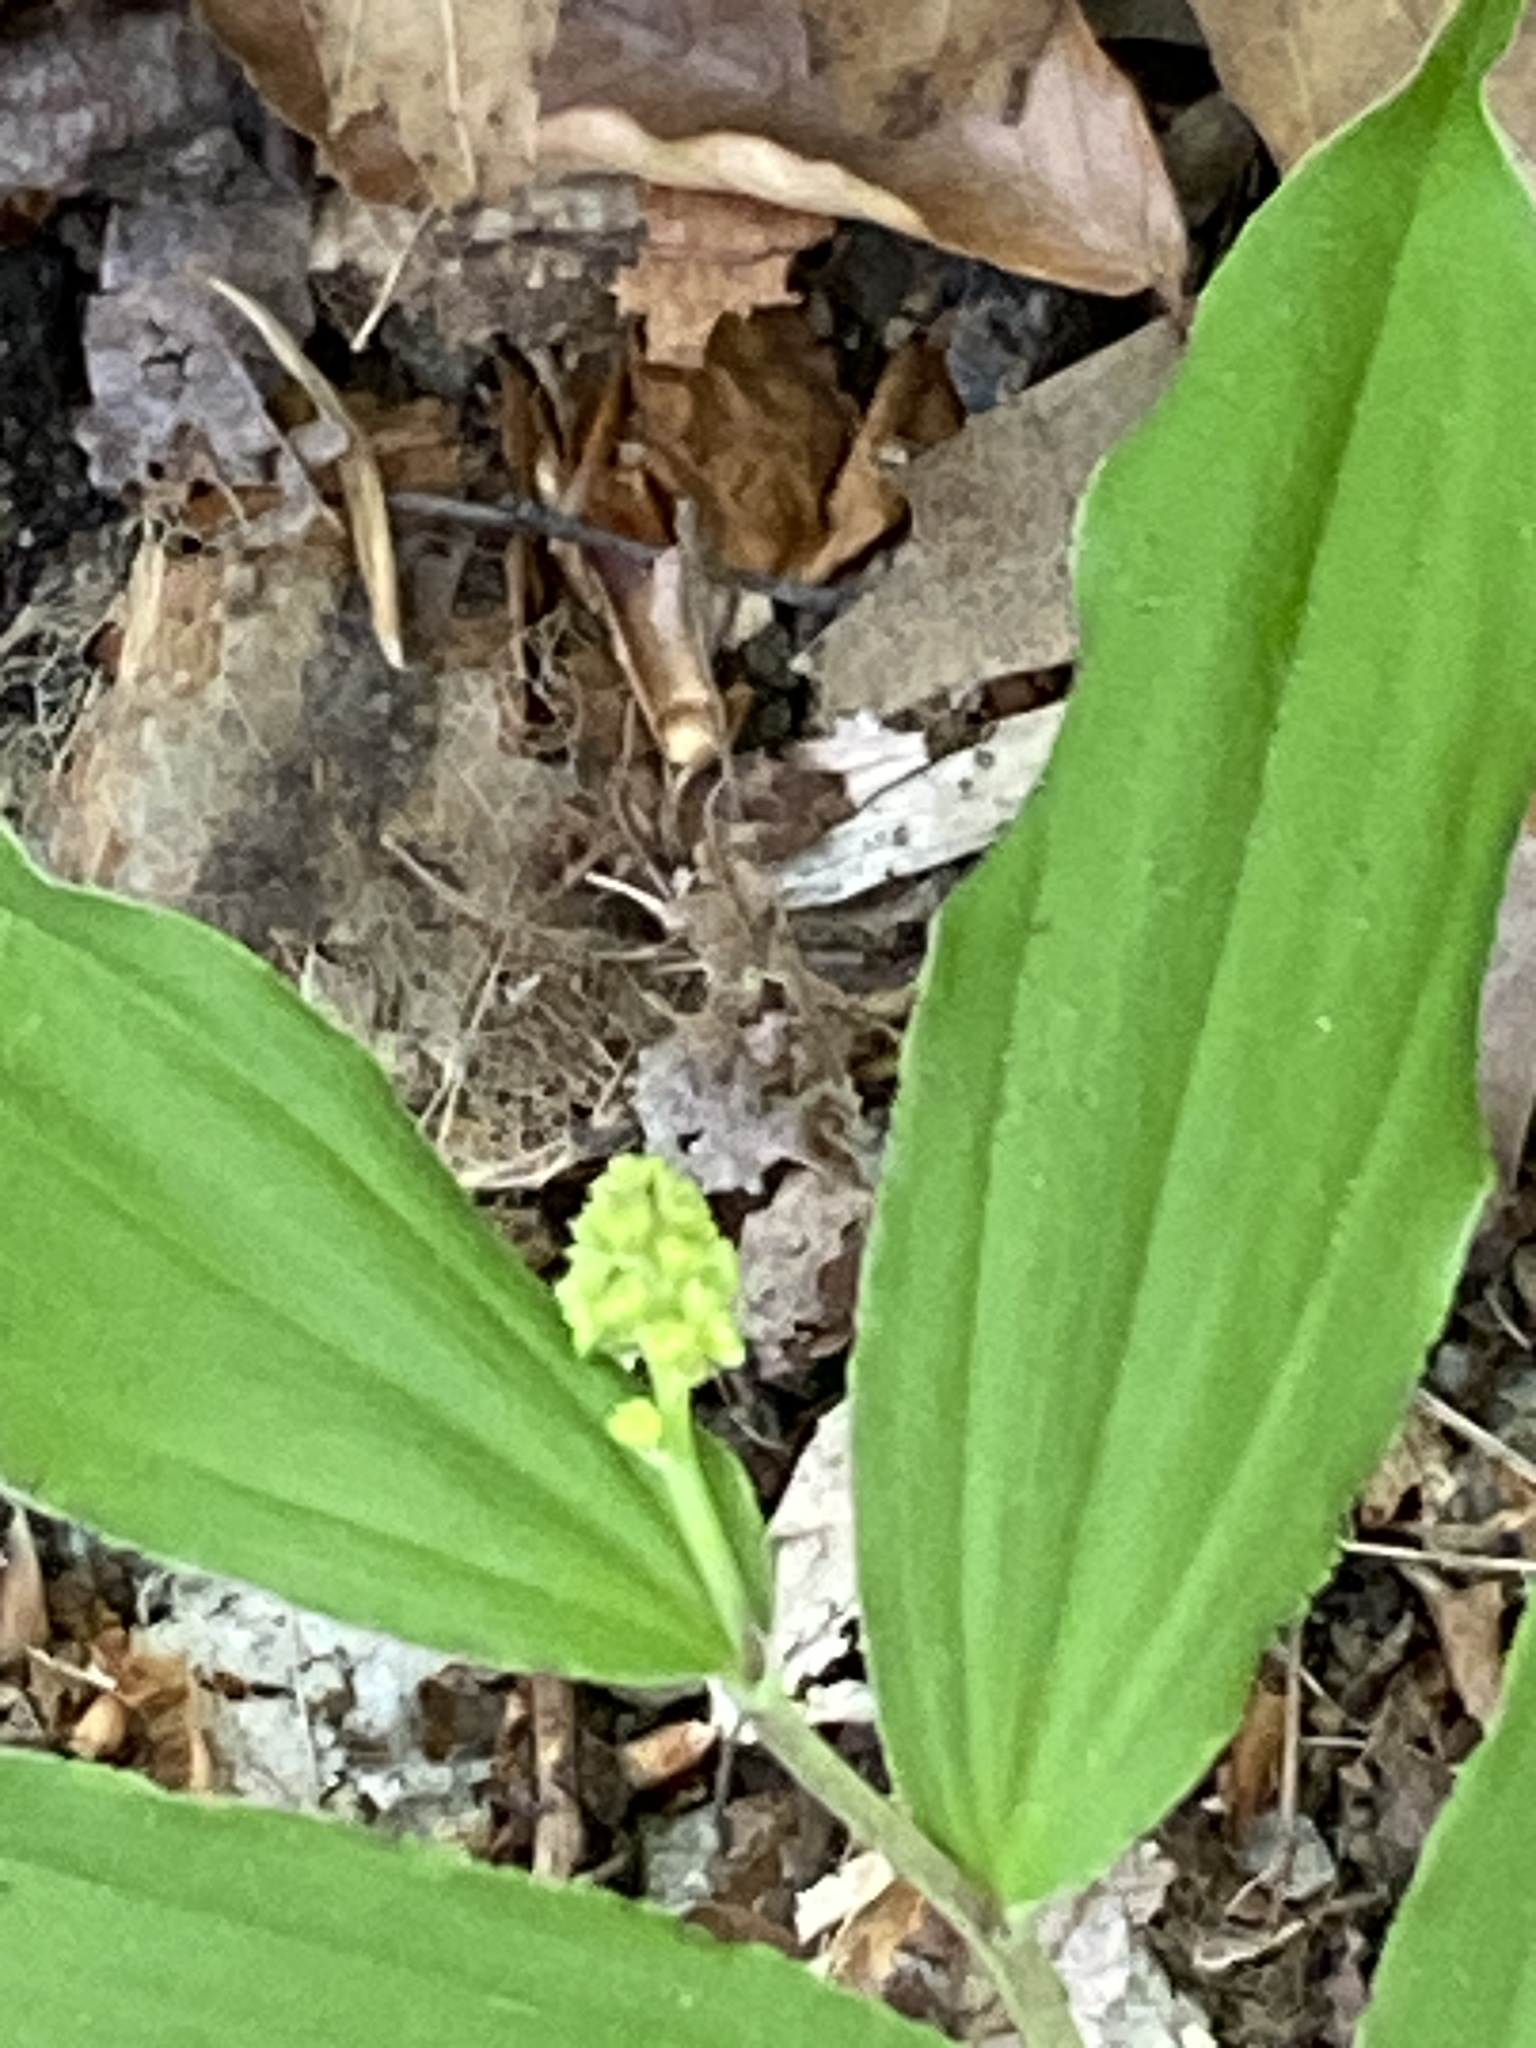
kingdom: Plantae
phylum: Tracheophyta
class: Liliopsida
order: Asparagales
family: Asparagaceae
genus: Maianthemum
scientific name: Maianthemum racemosum
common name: False spikenard
